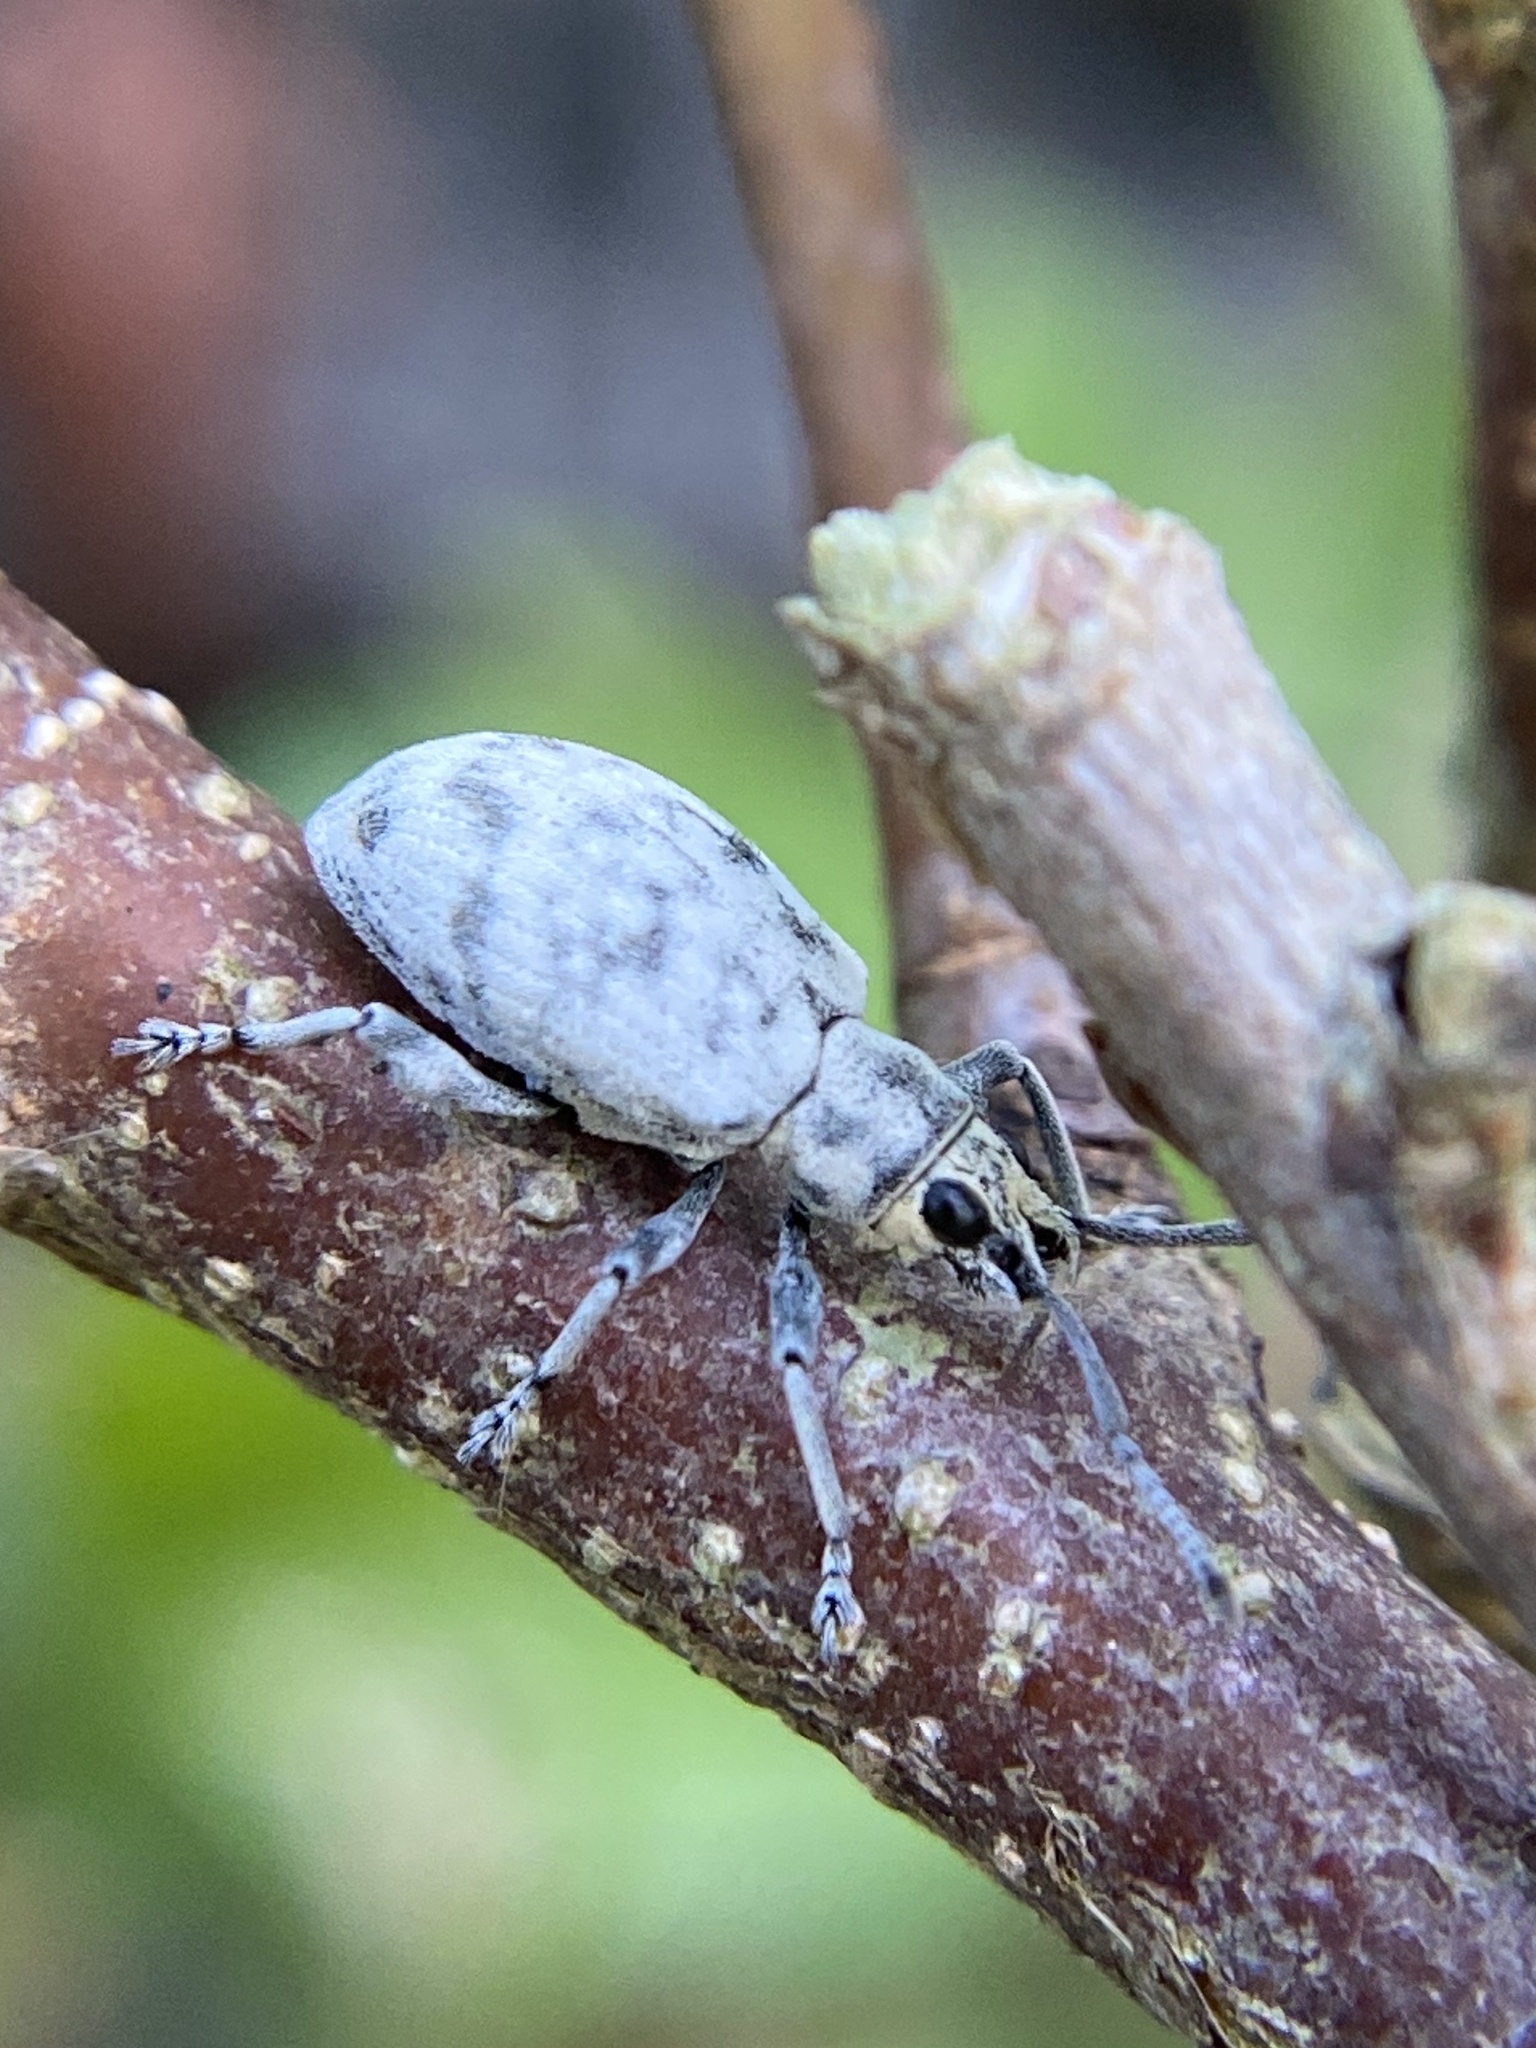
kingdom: Animalia
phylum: Arthropoda
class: Insecta
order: Coleoptera
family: Curculionidae
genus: Myllocerus
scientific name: Myllocerus undecimpustulatus
